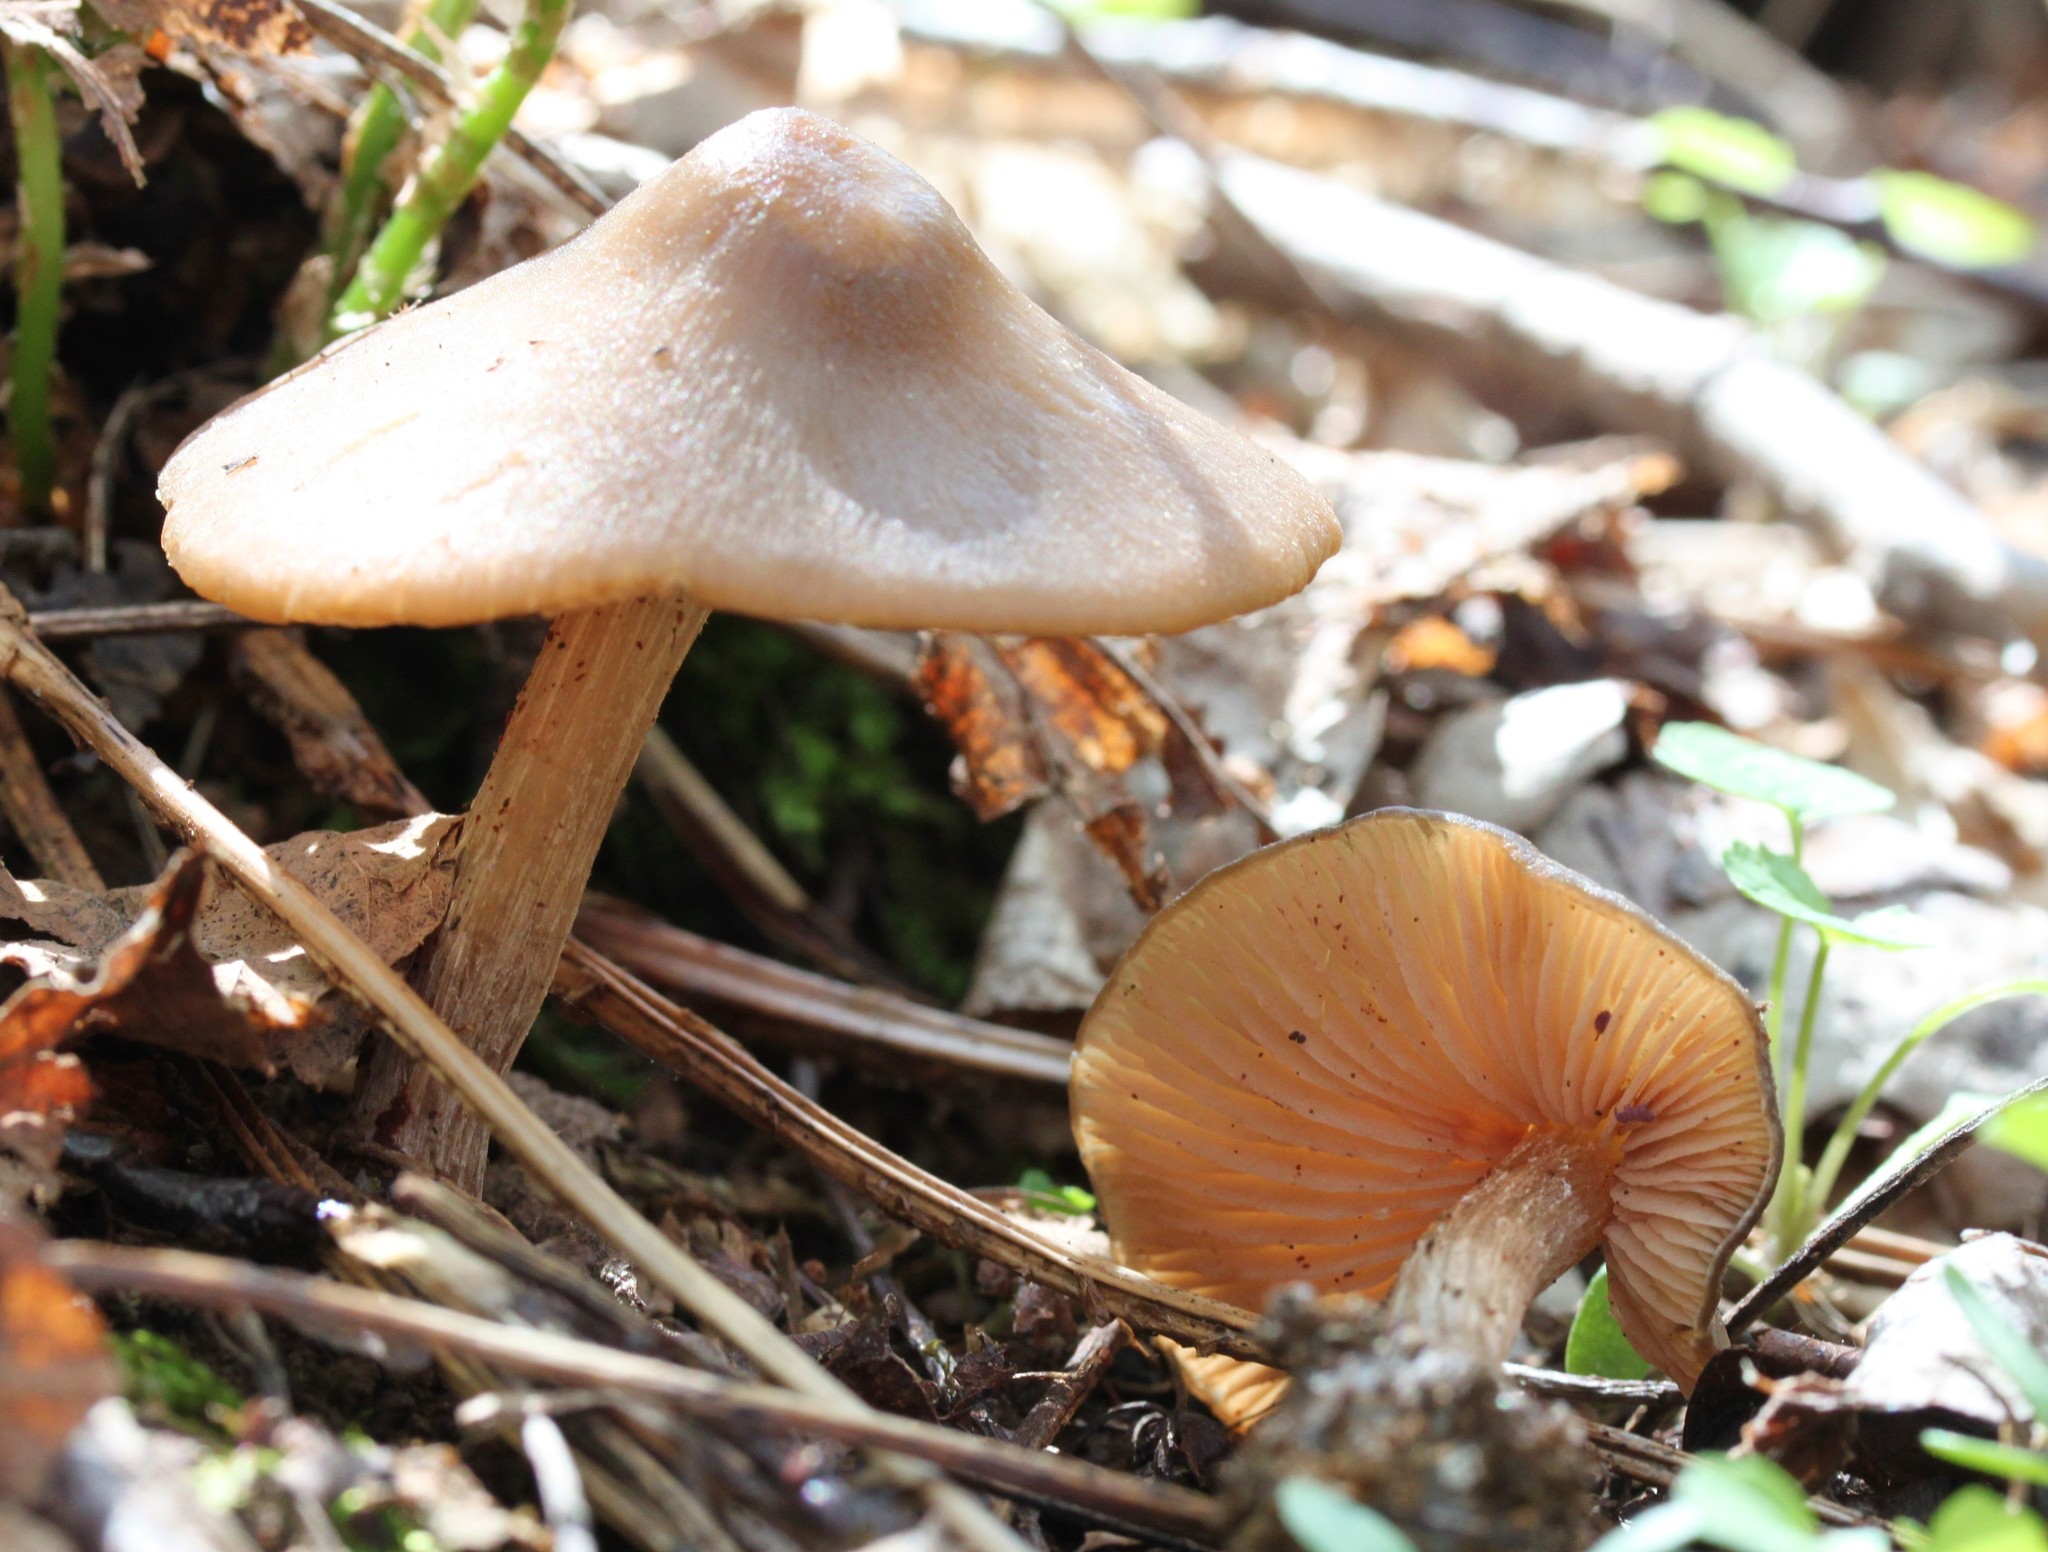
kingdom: Fungi
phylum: Basidiomycota
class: Agaricomycetes
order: Agaricales
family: Entolomataceae
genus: Entoloma
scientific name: Entoloma vernum
